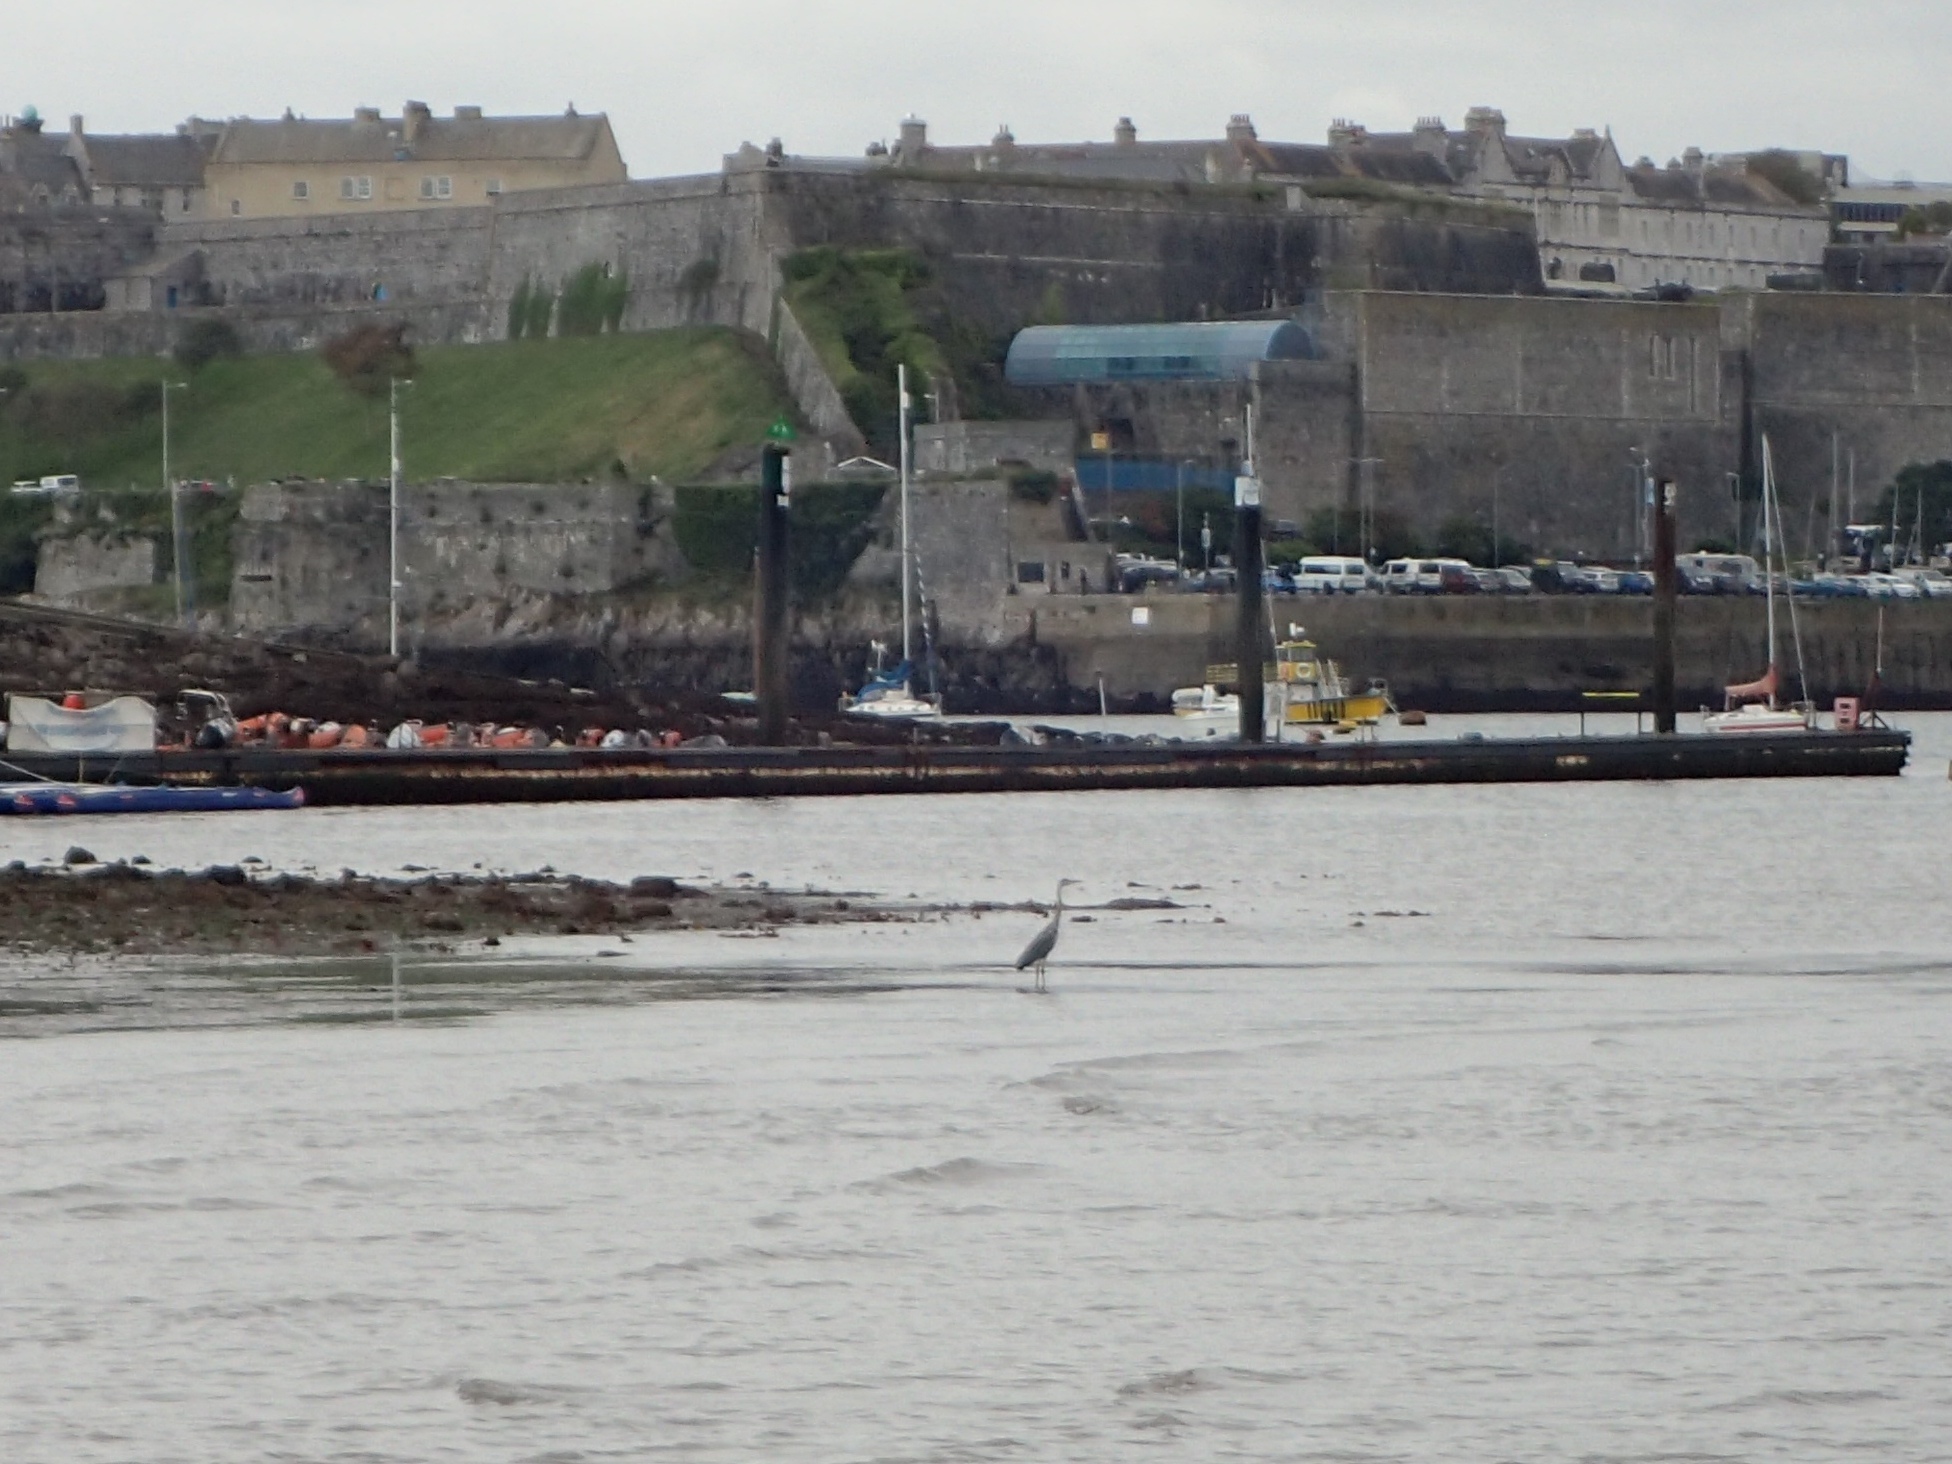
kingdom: Animalia
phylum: Chordata
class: Aves
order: Pelecaniformes
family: Ardeidae
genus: Ardea
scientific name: Ardea cinerea
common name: Grey heron
